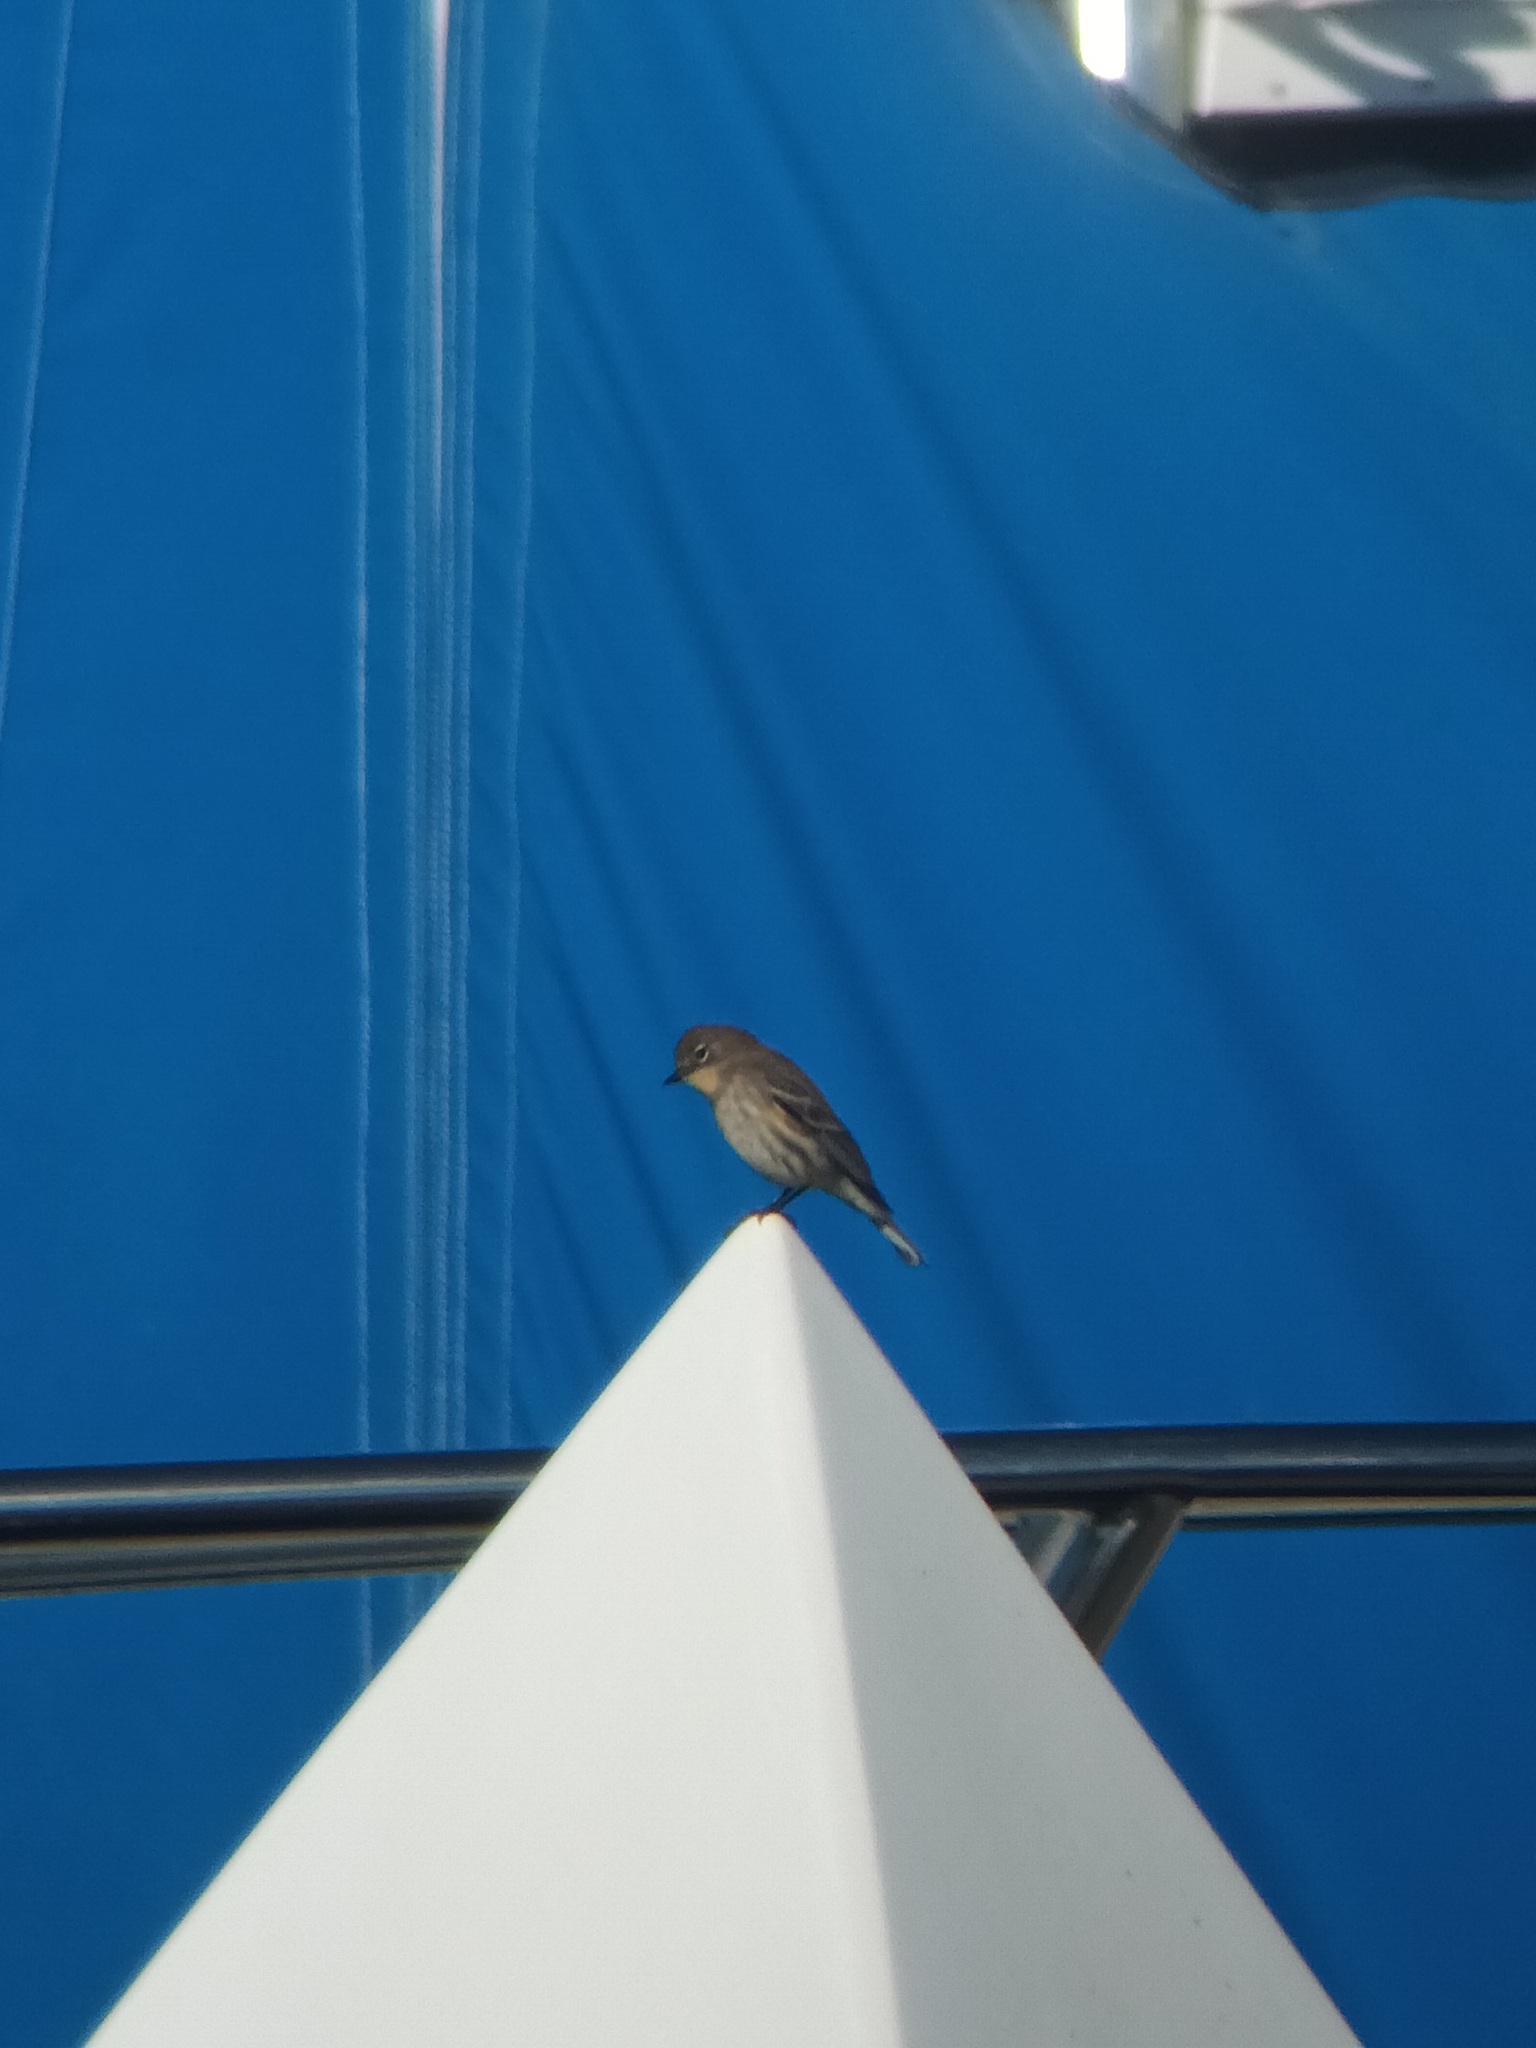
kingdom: Animalia
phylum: Chordata
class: Aves
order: Passeriformes
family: Parulidae
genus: Setophaga
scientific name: Setophaga coronata
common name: Myrtle warbler
